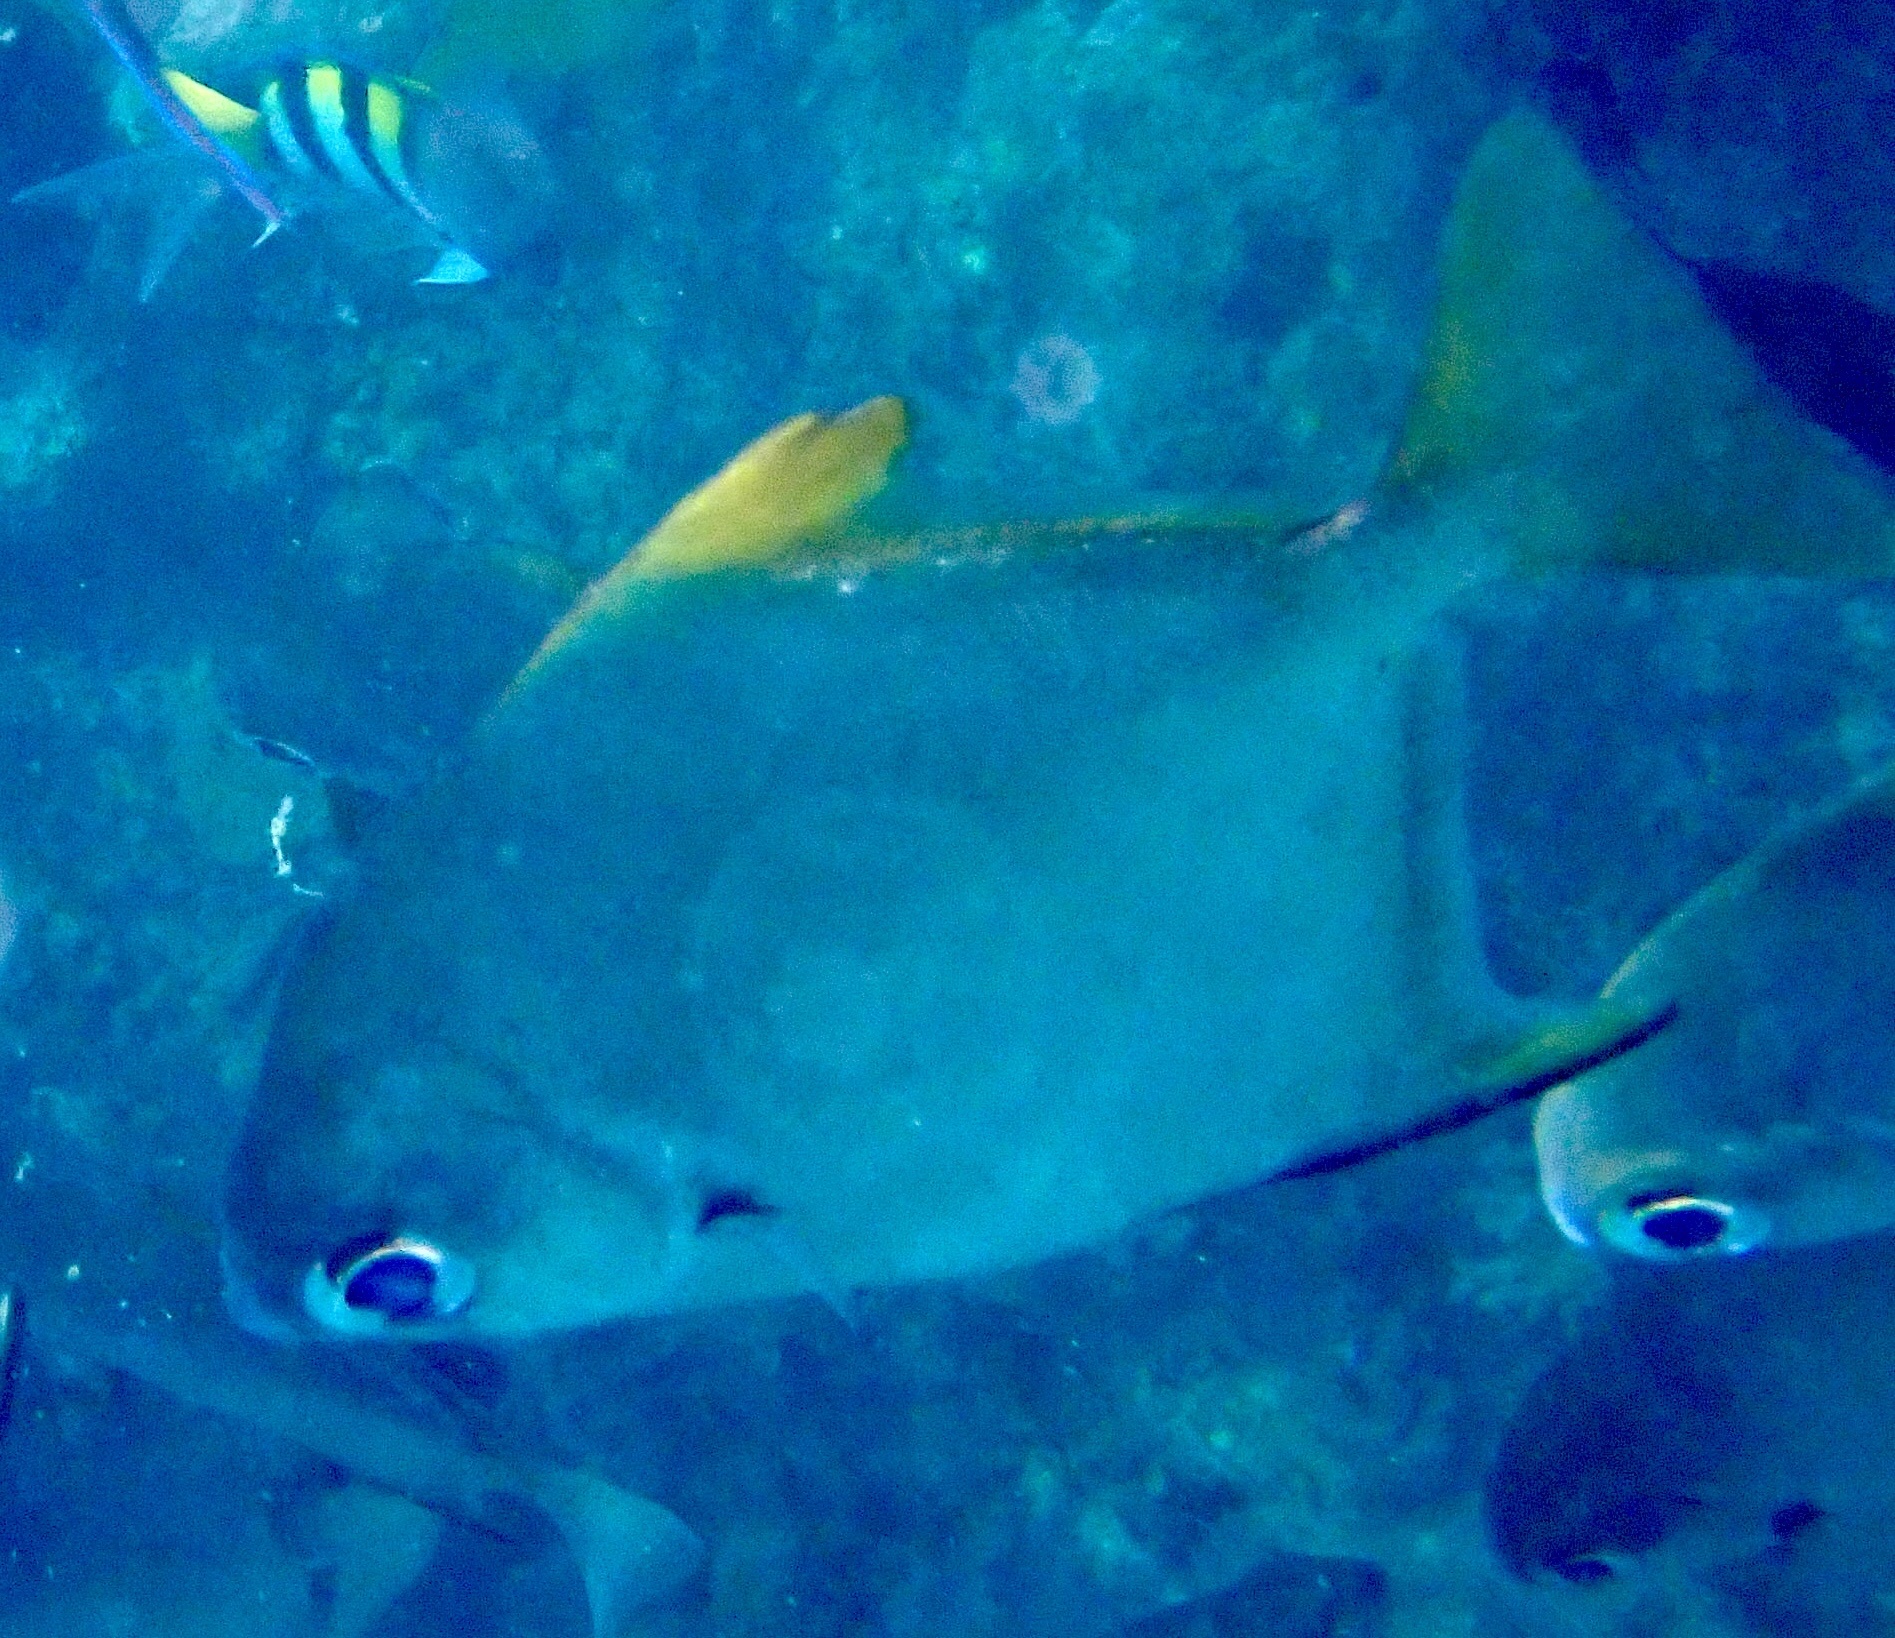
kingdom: Animalia
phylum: Chordata
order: Perciformes
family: Monodactylidae
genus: Monodactylus
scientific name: Monodactylus argenteus
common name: Silver moony
